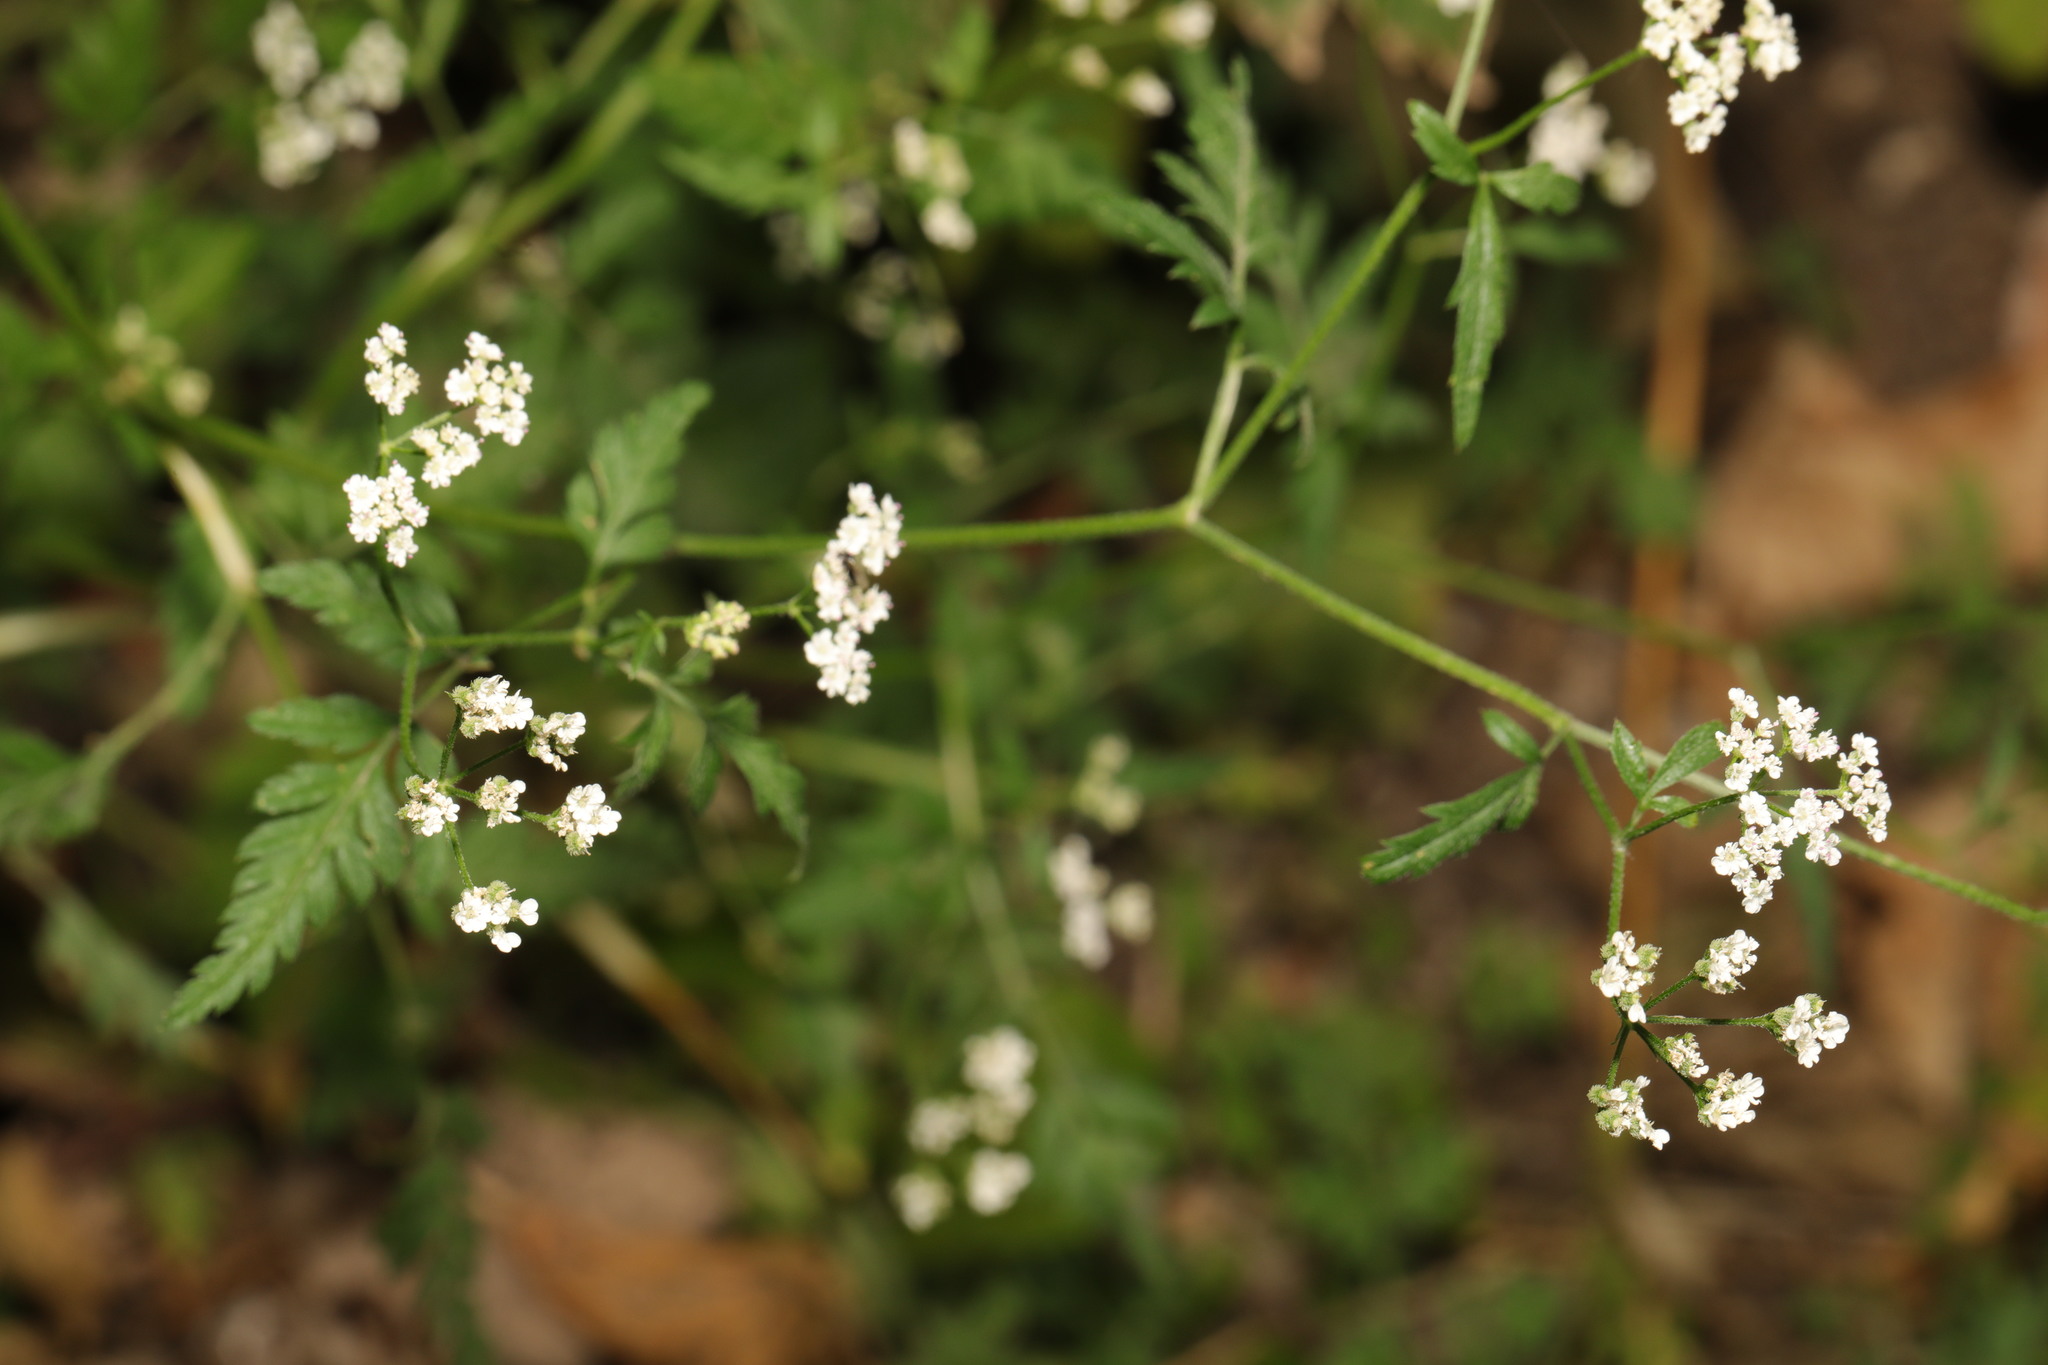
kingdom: Plantae
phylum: Tracheophyta
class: Magnoliopsida
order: Apiales
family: Apiaceae
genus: Torilis
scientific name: Torilis japonica
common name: Upright hedge-parsley
